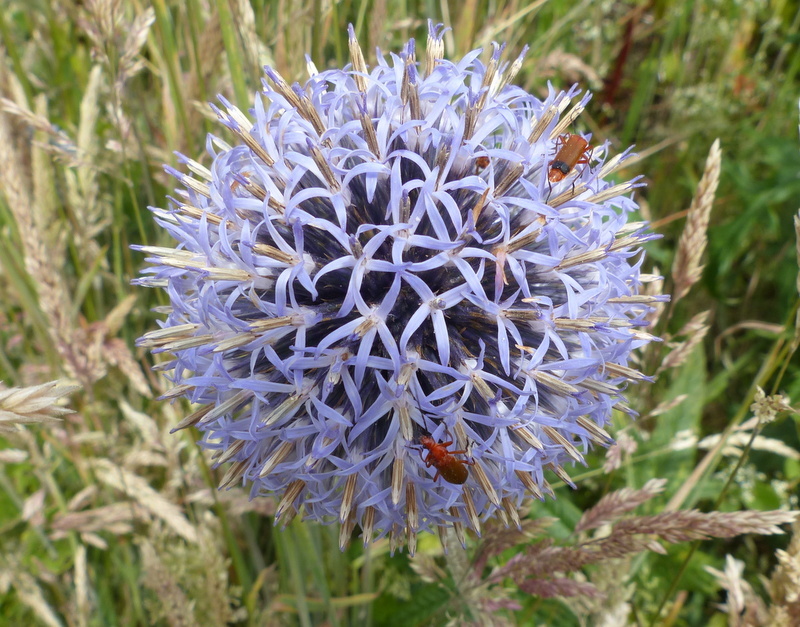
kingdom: Plantae
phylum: Tracheophyta
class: Magnoliopsida
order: Asterales
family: Asteraceae
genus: Echinops
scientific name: Echinops bannaticus
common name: Blue globe-thistle
